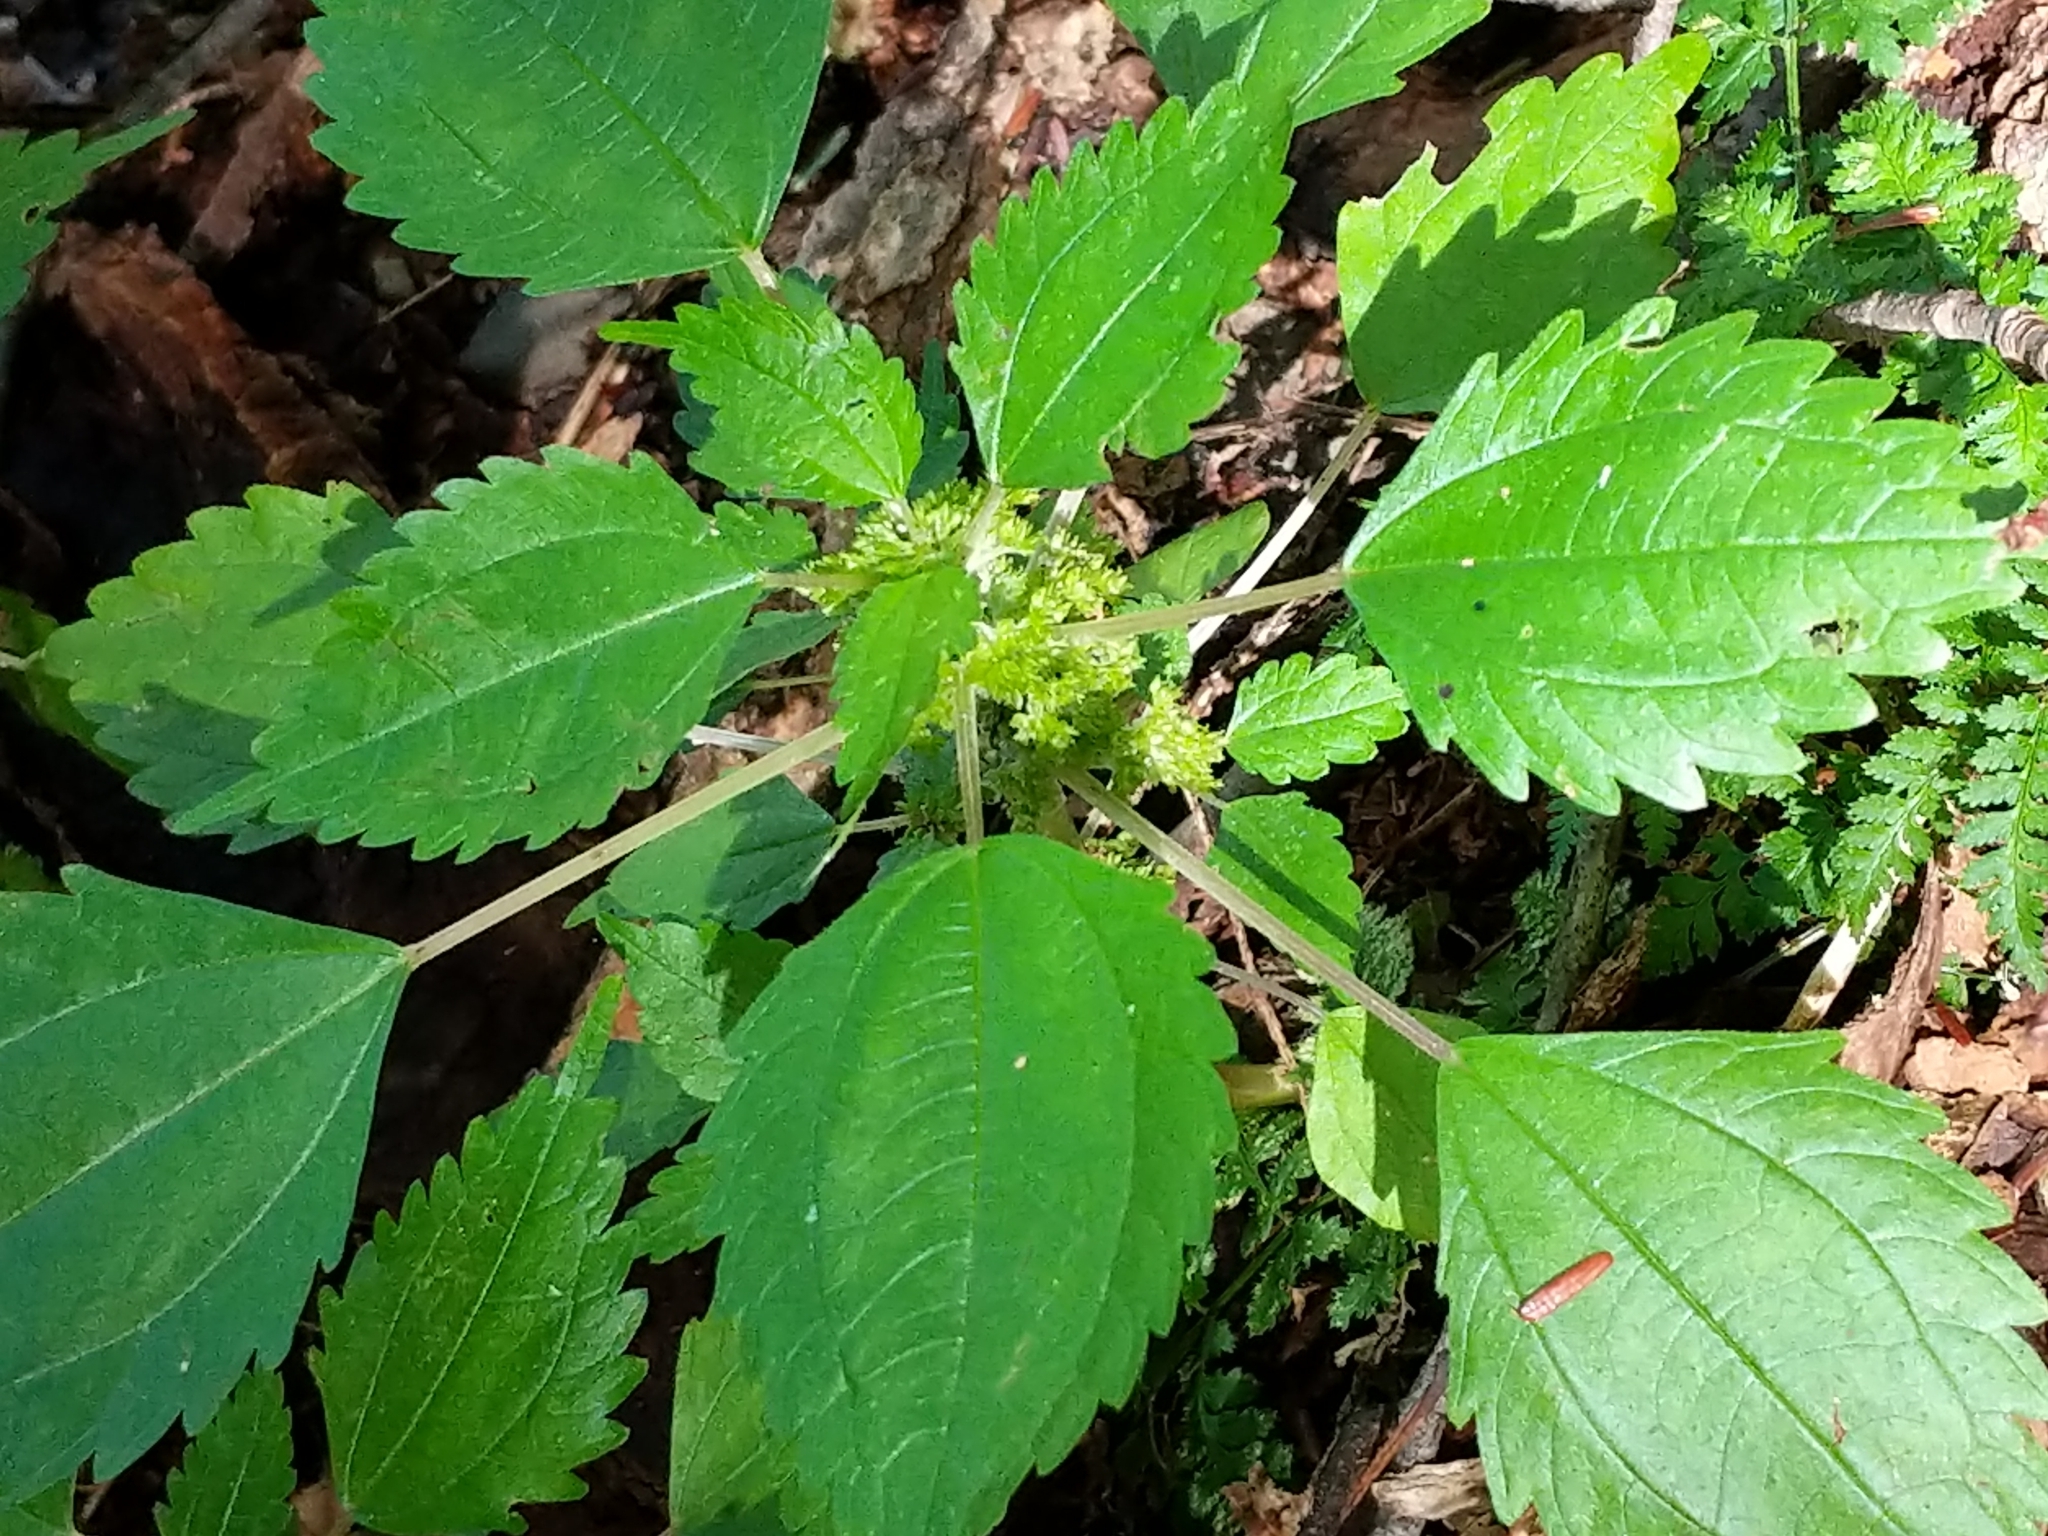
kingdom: Plantae
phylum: Tracheophyta
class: Magnoliopsida
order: Rosales
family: Urticaceae
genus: Pilea
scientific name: Pilea pumila
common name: Clearweed
